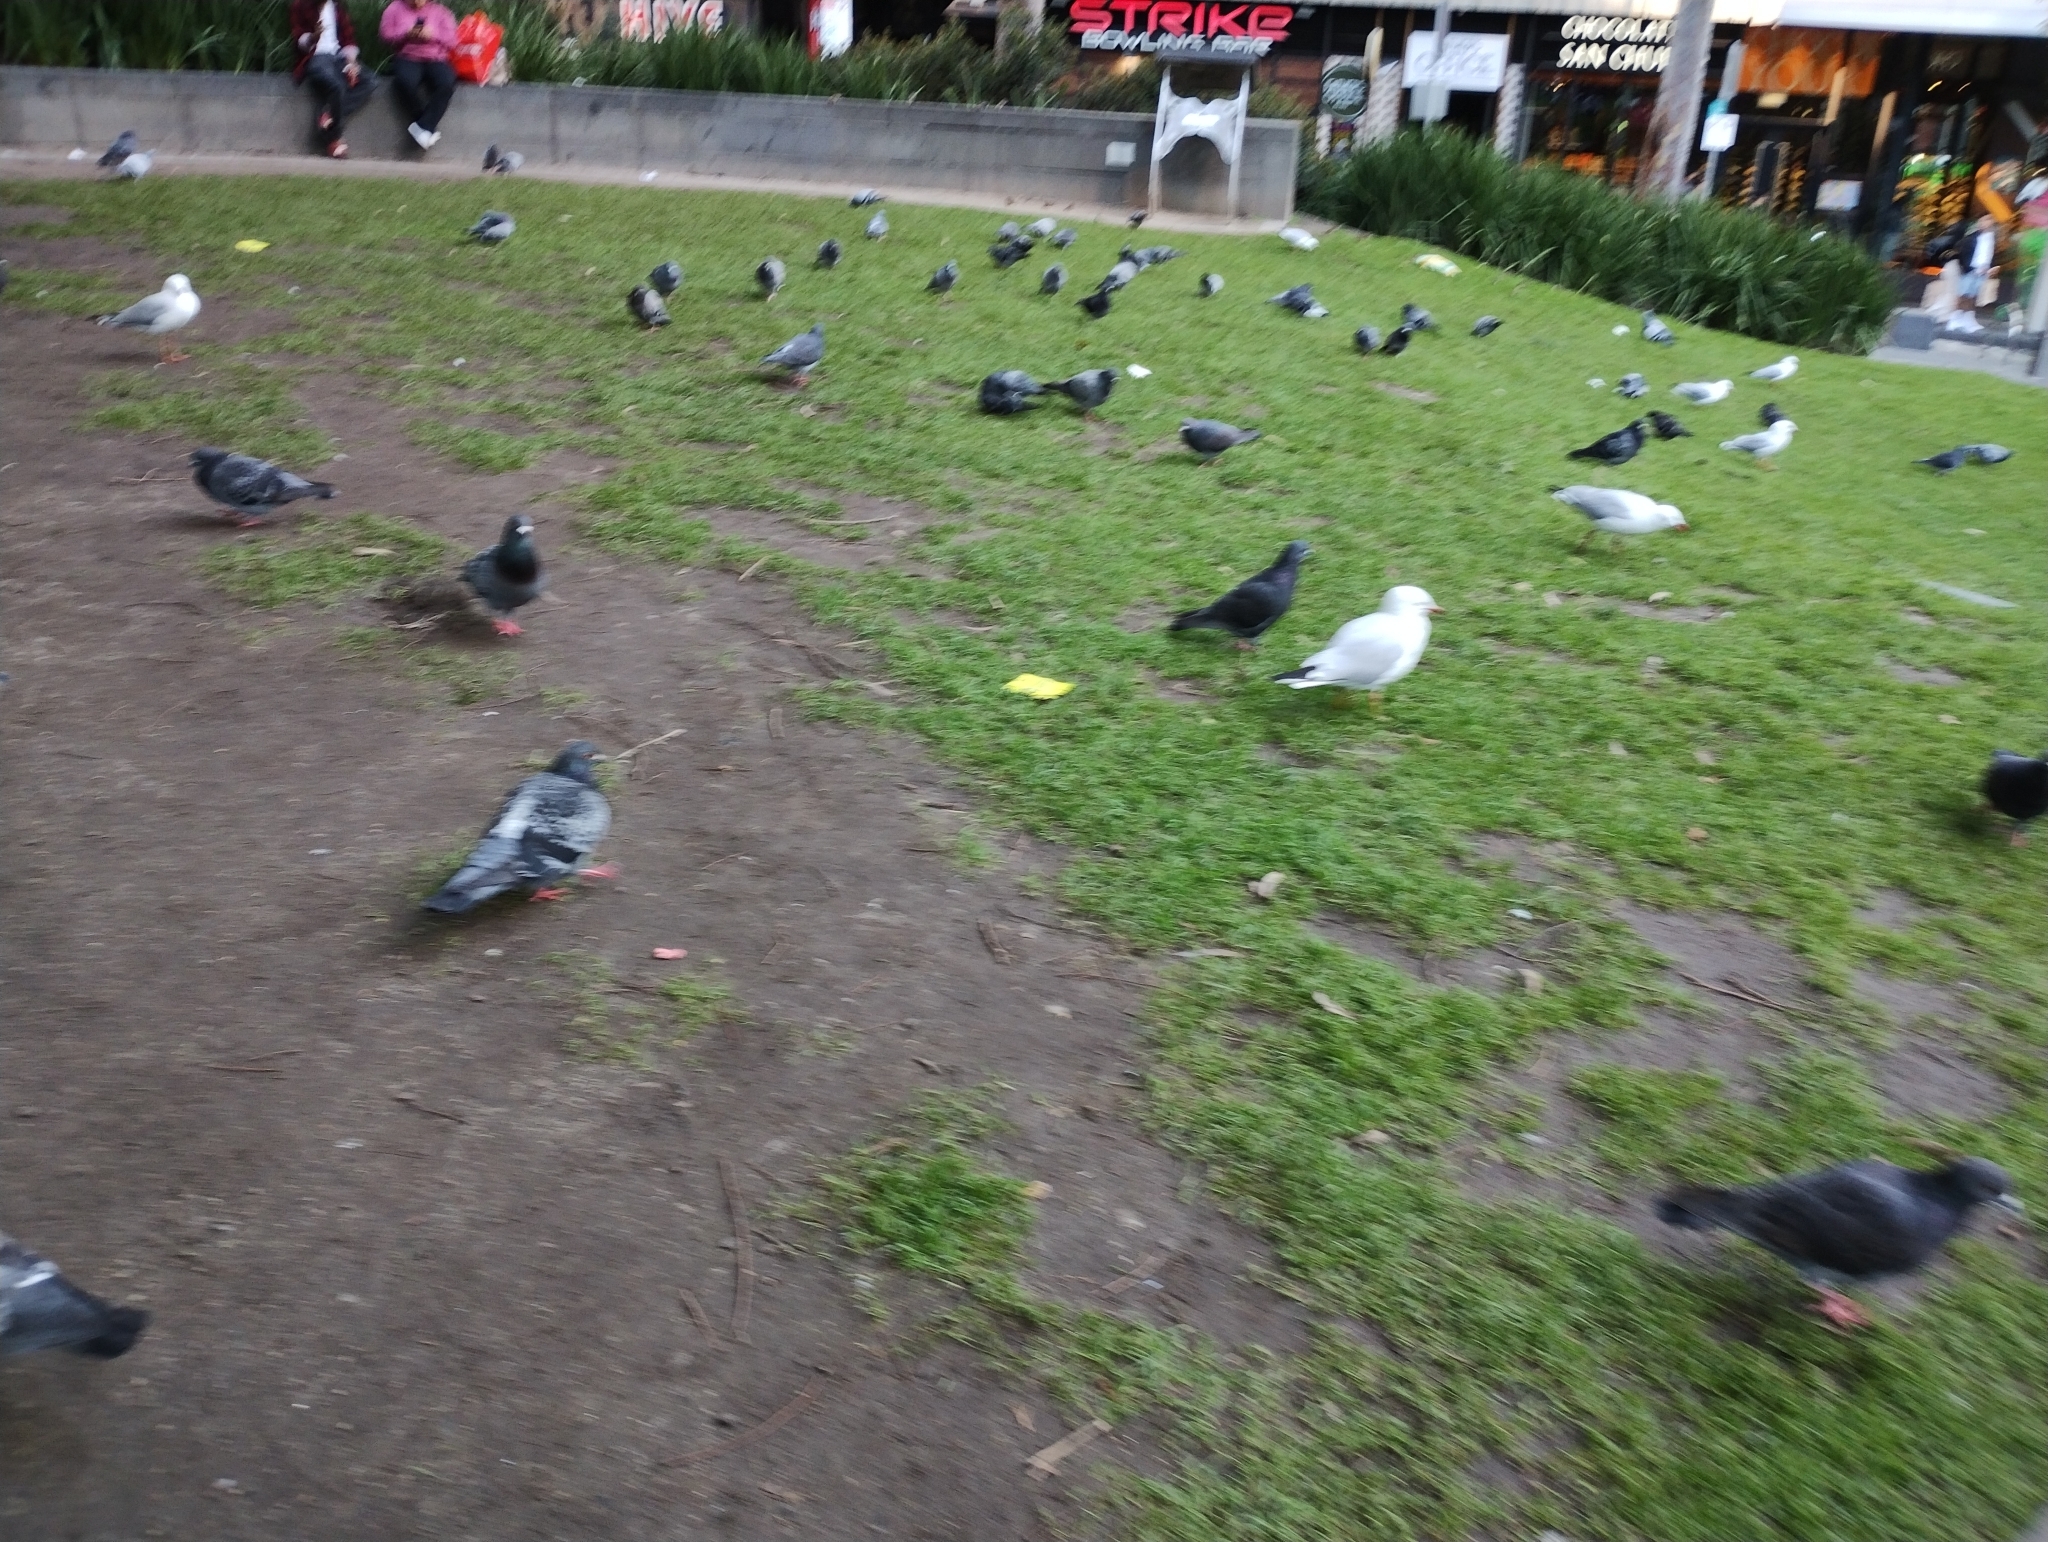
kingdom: Animalia
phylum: Chordata
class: Aves
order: Columbiformes
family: Columbidae
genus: Columba
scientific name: Columba livia
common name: Rock pigeon
